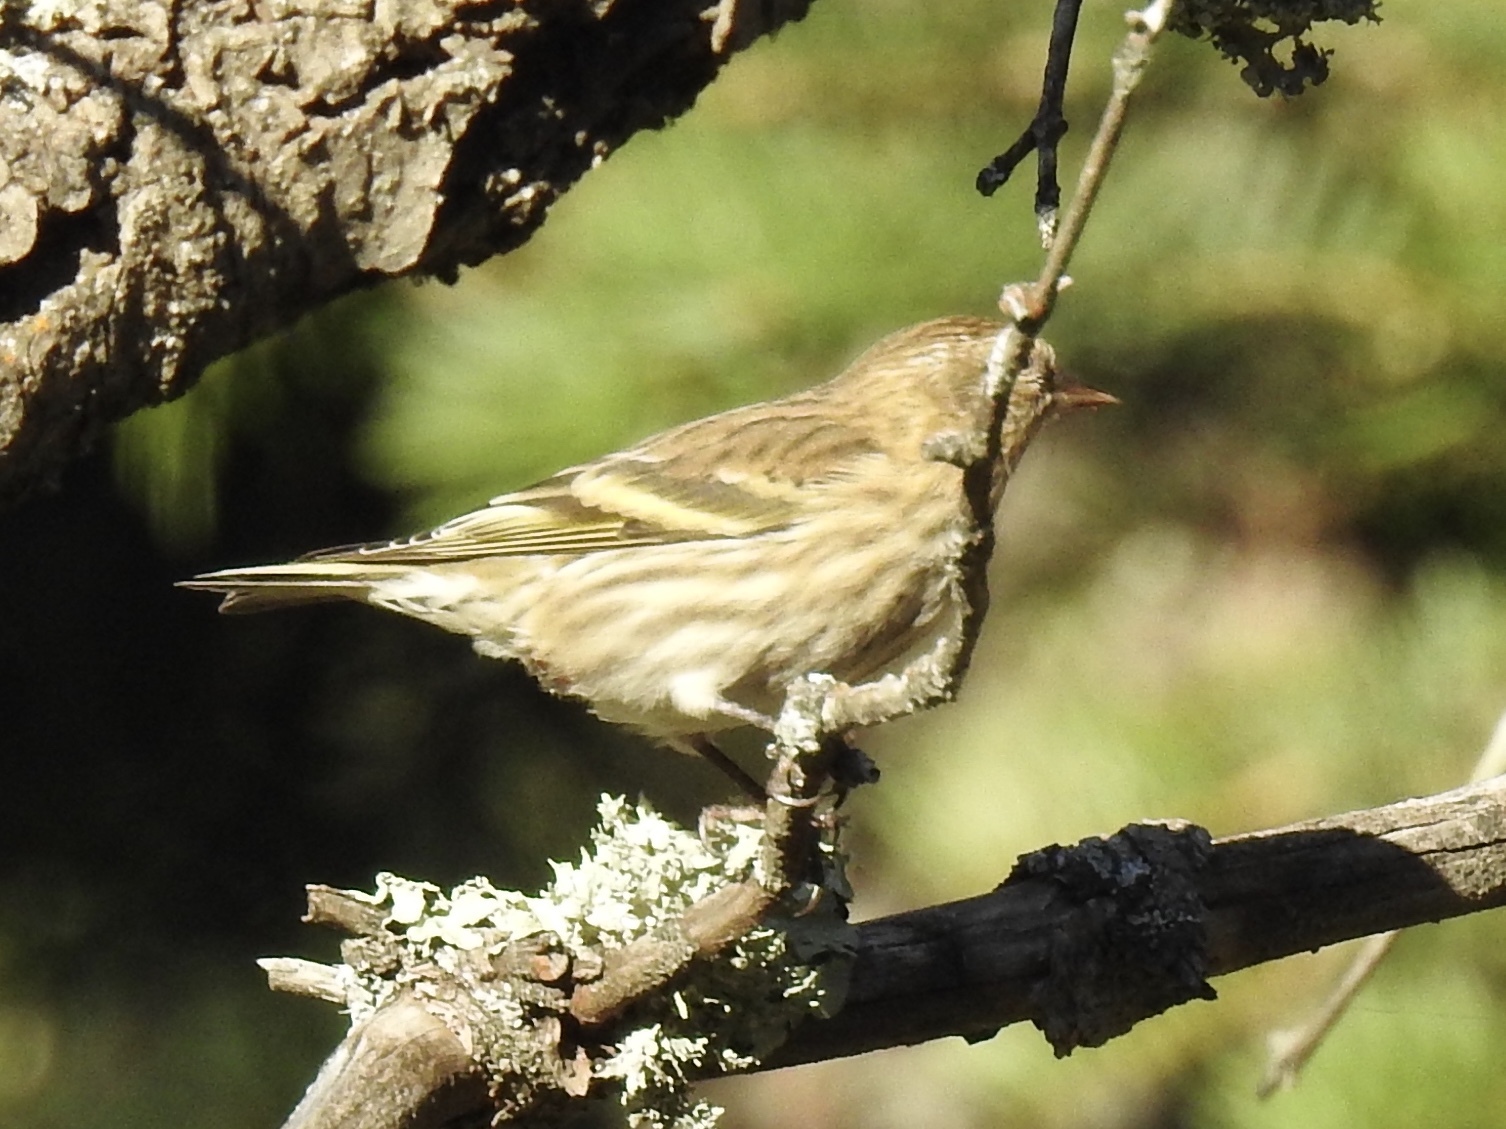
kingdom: Animalia
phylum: Chordata
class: Aves
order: Passeriformes
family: Fringillidae
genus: Spinus
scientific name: Spinus pinus
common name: Pine siskin
